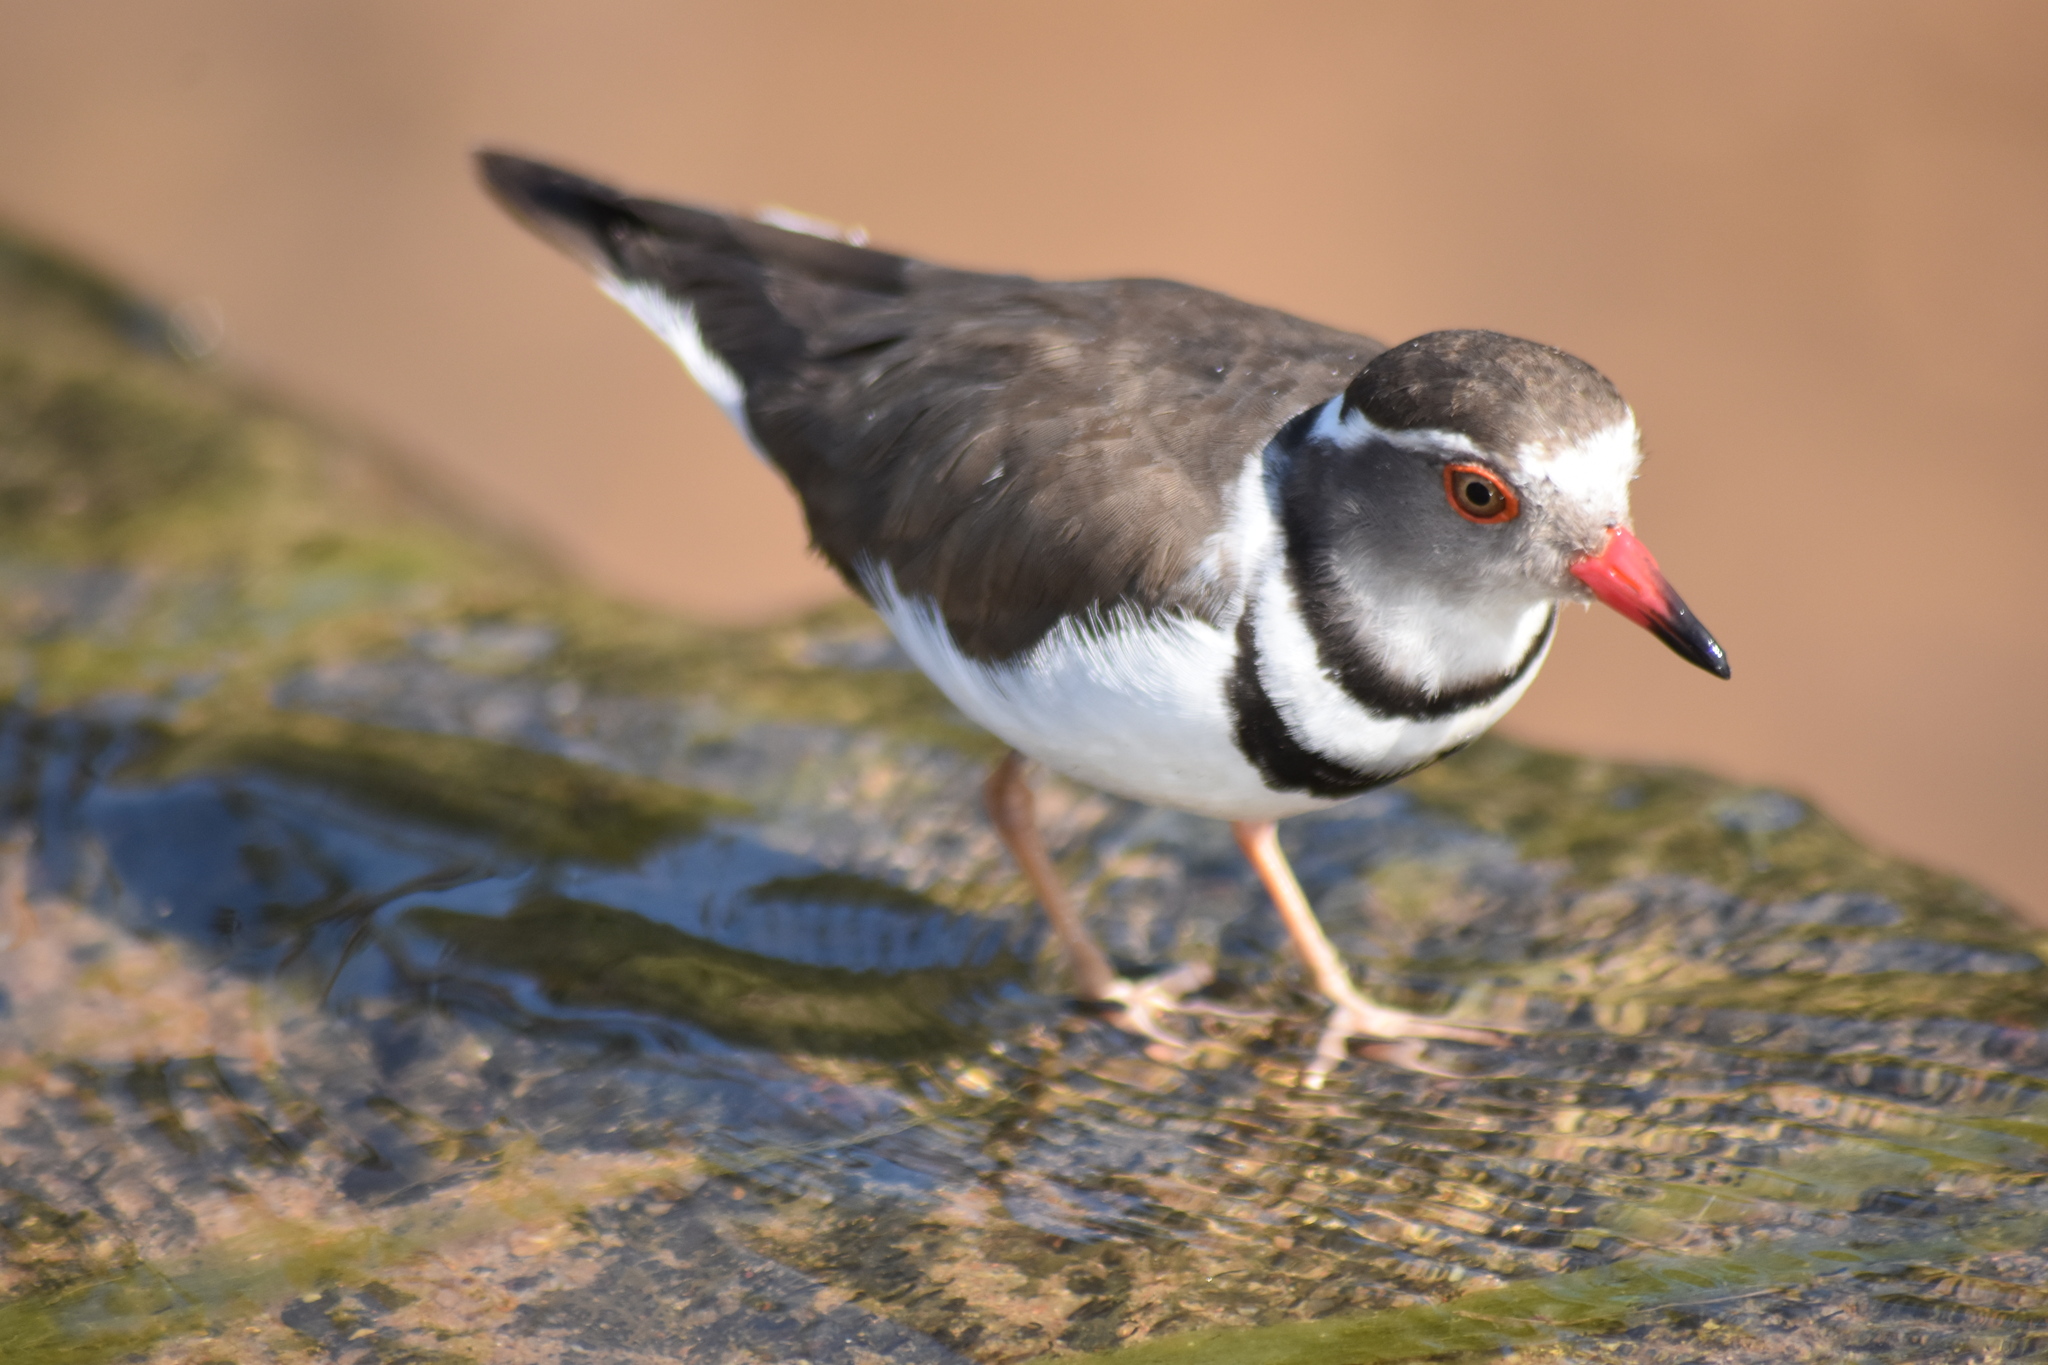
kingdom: Animalia
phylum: Chordata
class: Aves
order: Charadriiformes
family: Charadriidae
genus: Charadrius
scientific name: Charadrius tricollaris
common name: Three-banded plover
